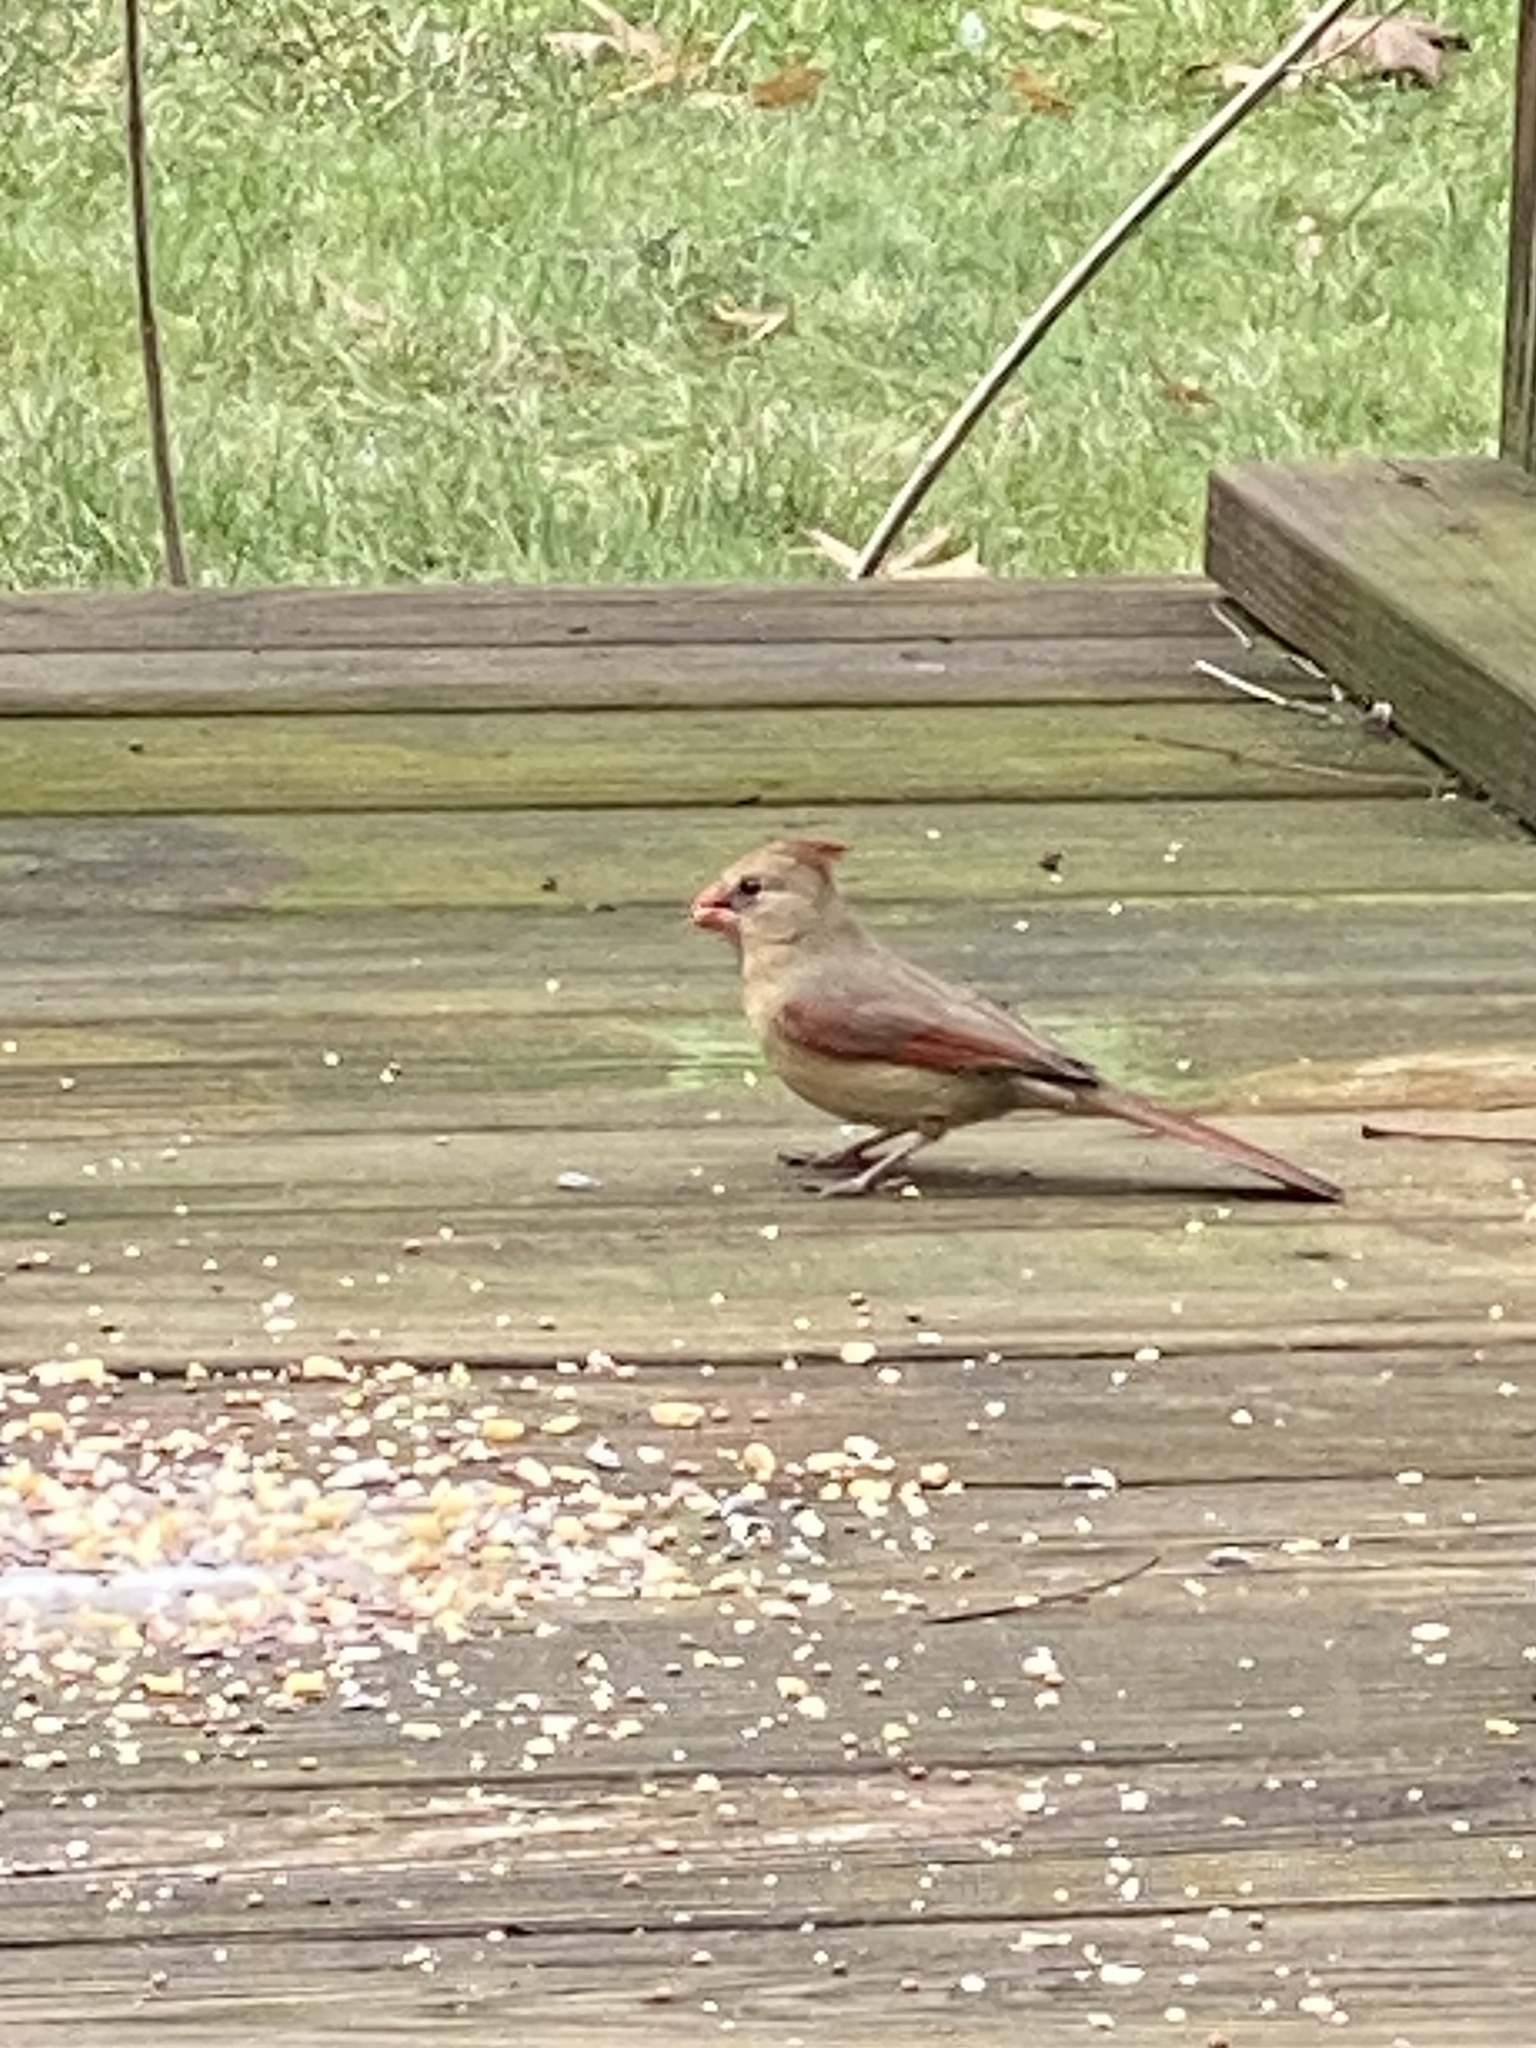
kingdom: Animalia
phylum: Chordata
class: Aves
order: Passeriformes
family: Cardinalidae
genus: Cardinalis
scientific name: Cardinalis cardinalis
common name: Northern cardinal
